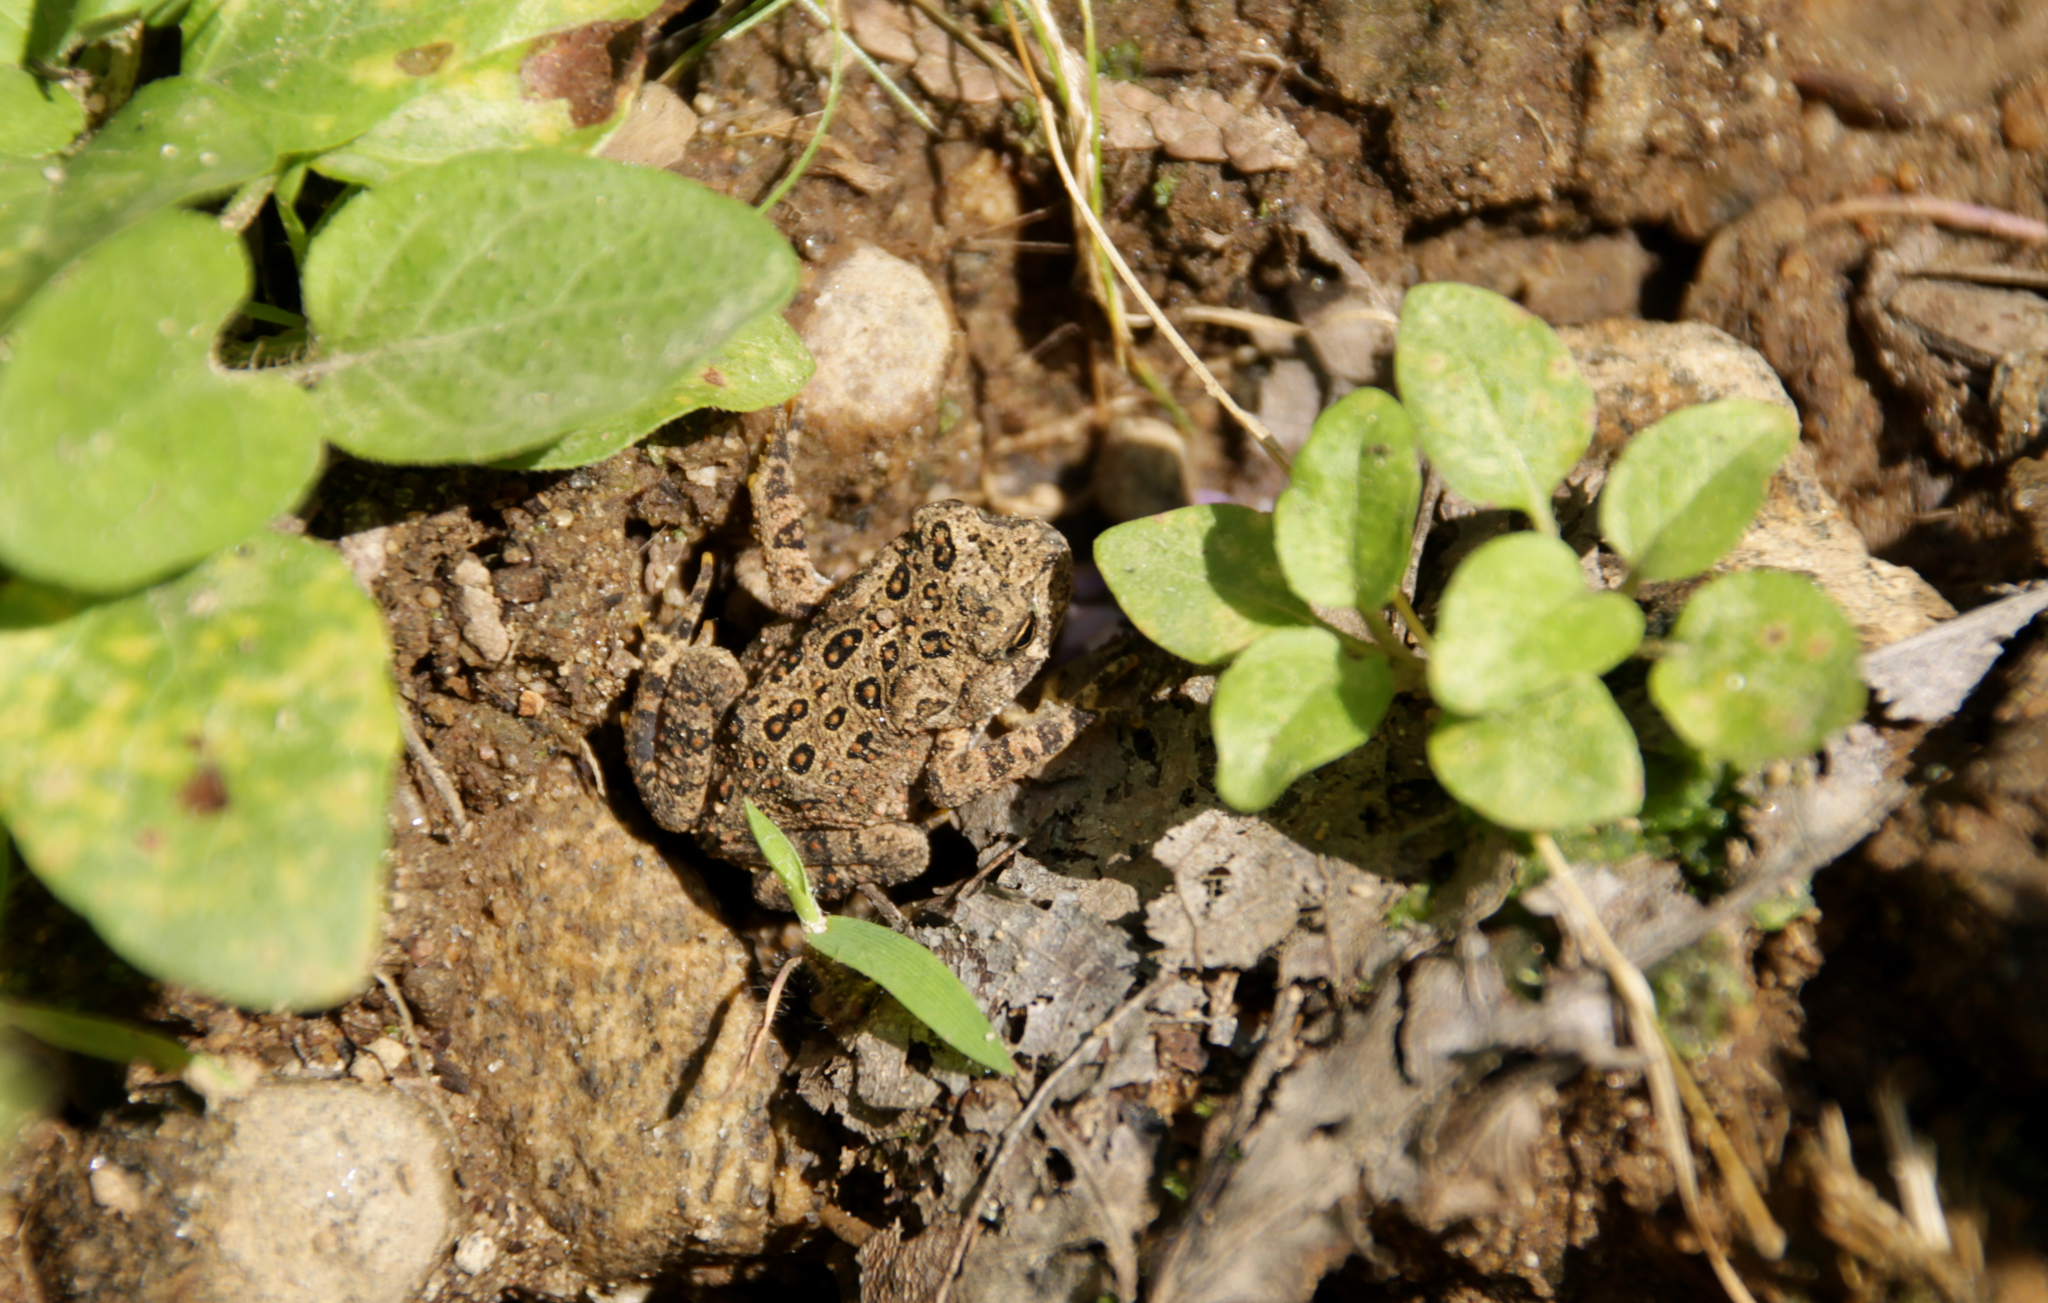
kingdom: Animalia
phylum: Chordata
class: Amphibia
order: Anura
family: Bufonidae
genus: Anaxyrus
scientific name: Anaxyrus americanus
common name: American toad
